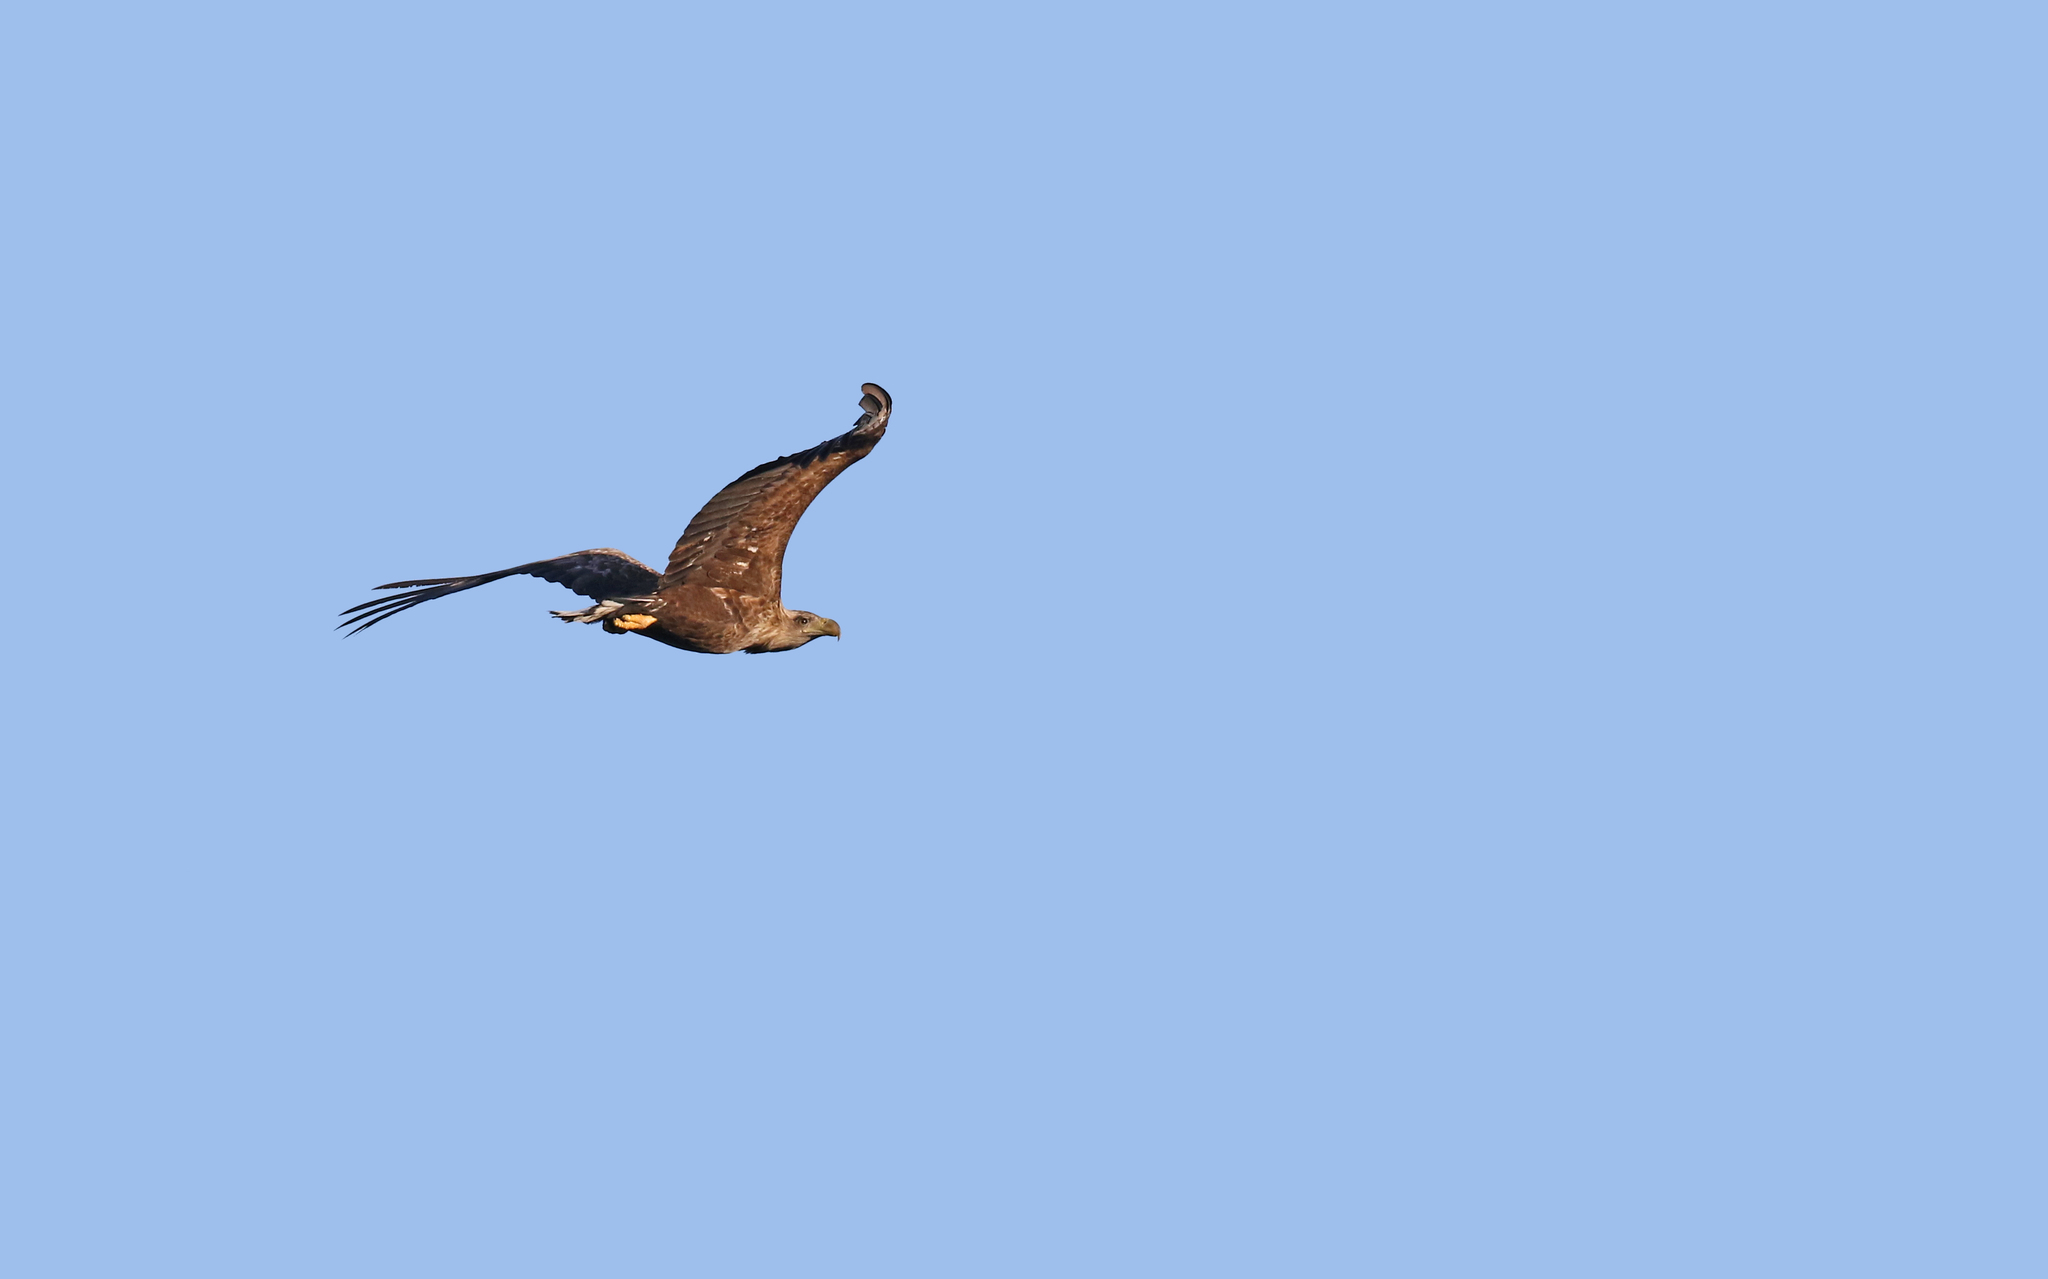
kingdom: Animalia
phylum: Chordata
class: Aves
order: Accipitriformes
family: Accipitridae
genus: Haliaeetus
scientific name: Haliaeetus albicilla
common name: White-tailed eagle
